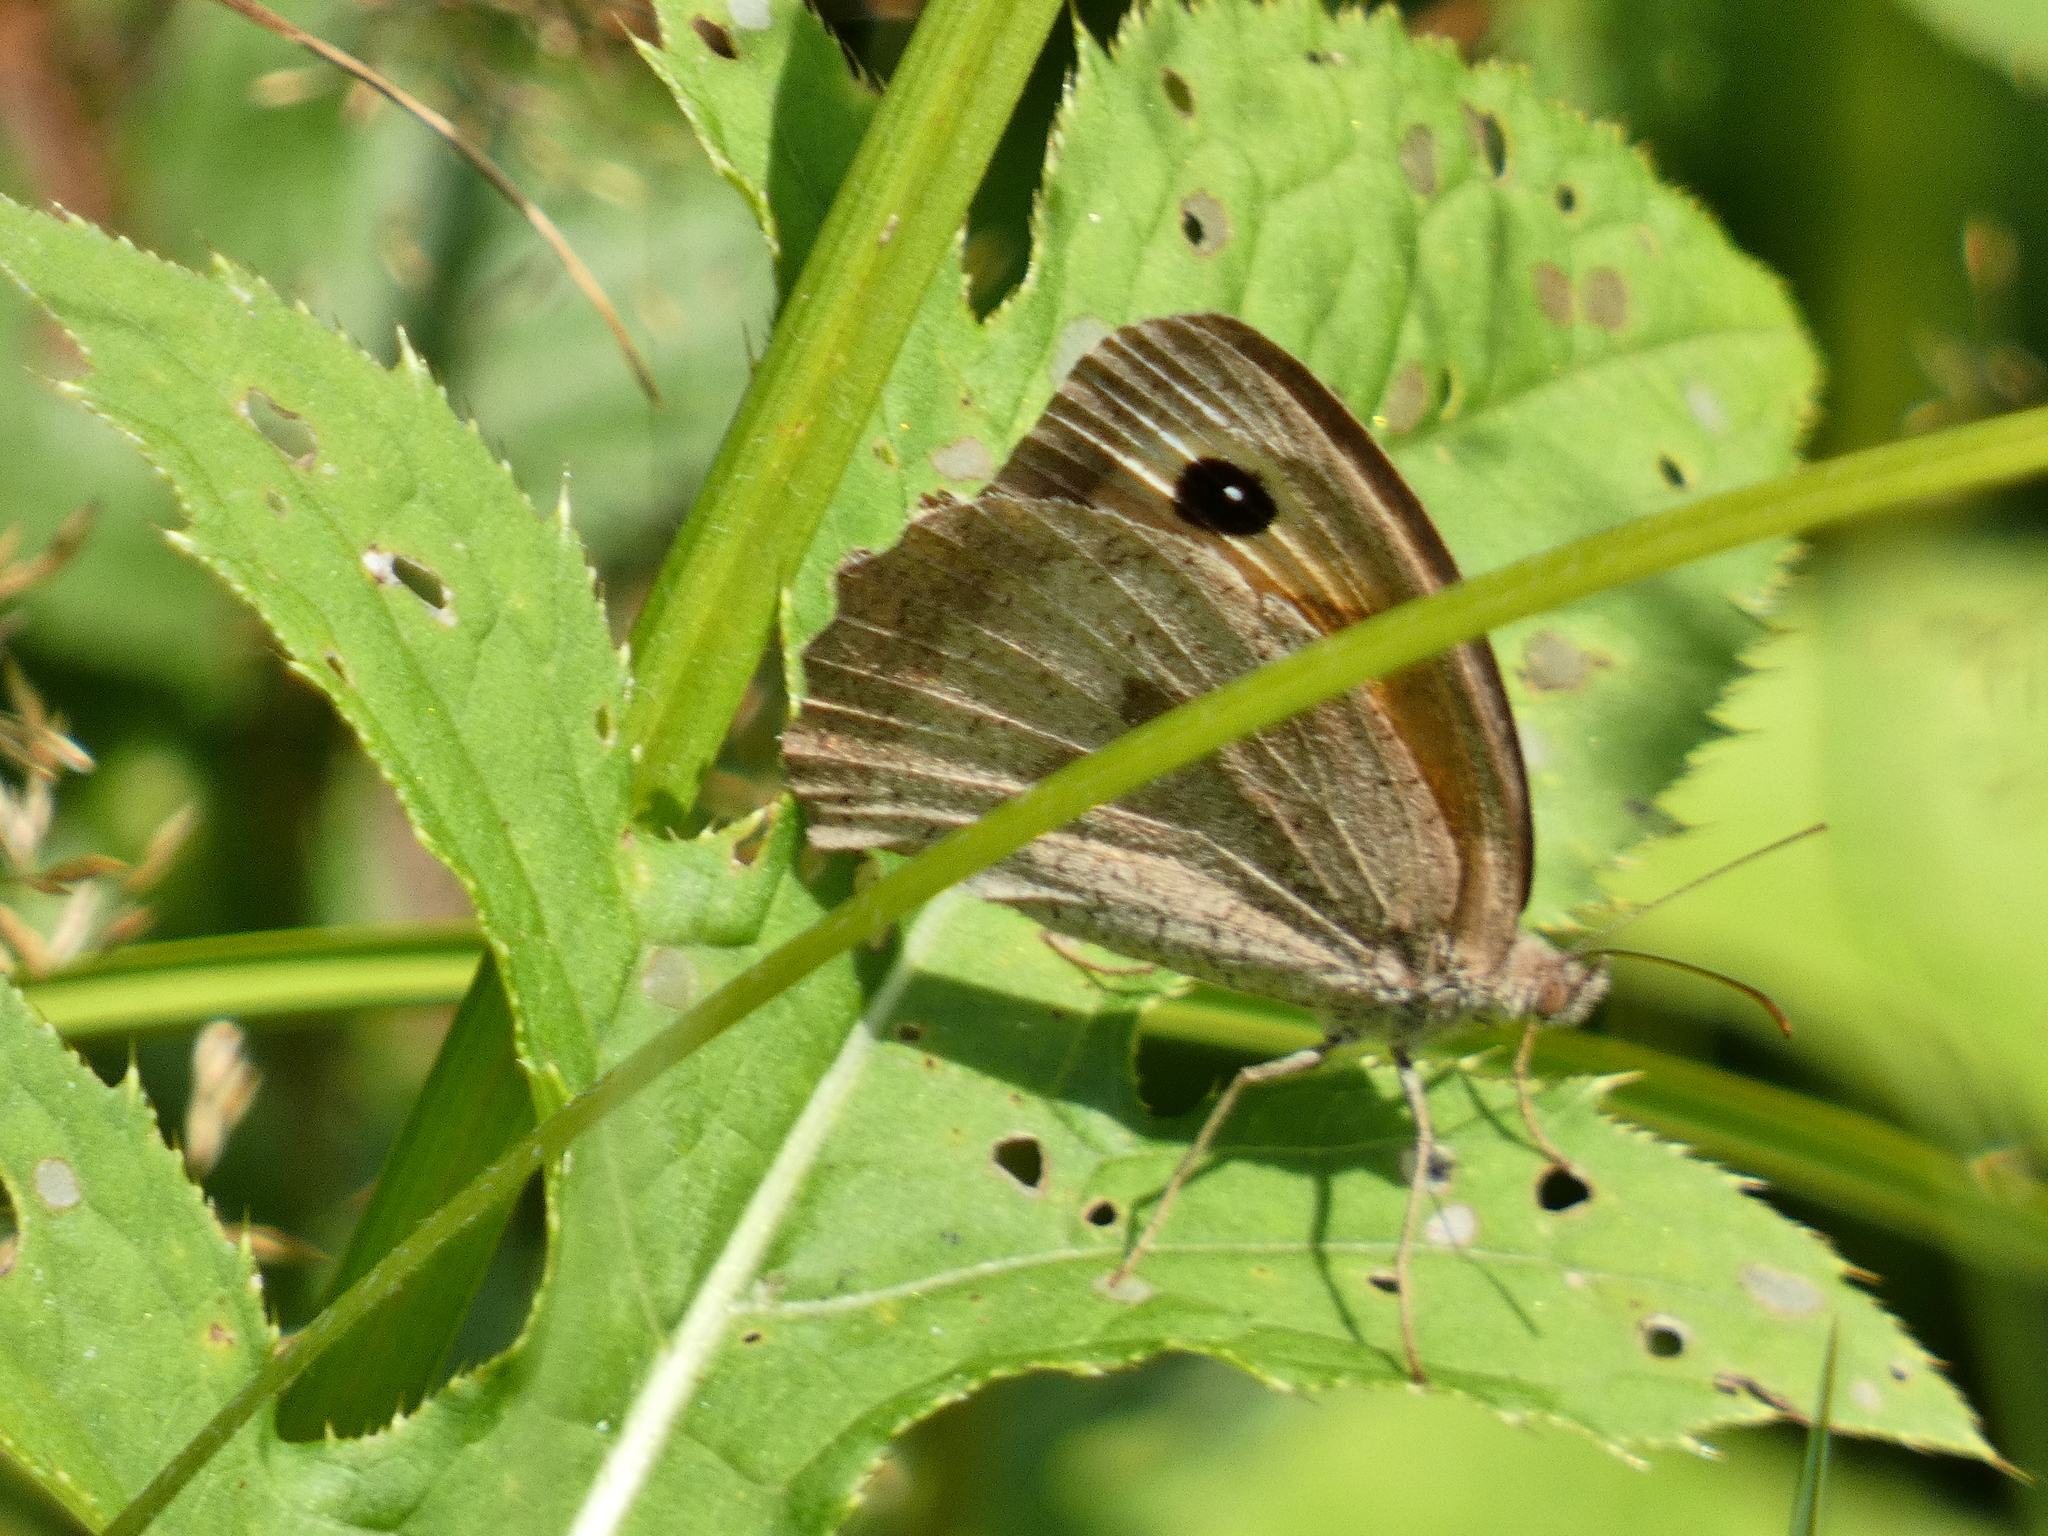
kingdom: Animalia
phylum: Arthropoda
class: Insecta
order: Lepidoptera
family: Nymphalidae
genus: Maniola
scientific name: Maniola jurtina
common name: Meadow brown
